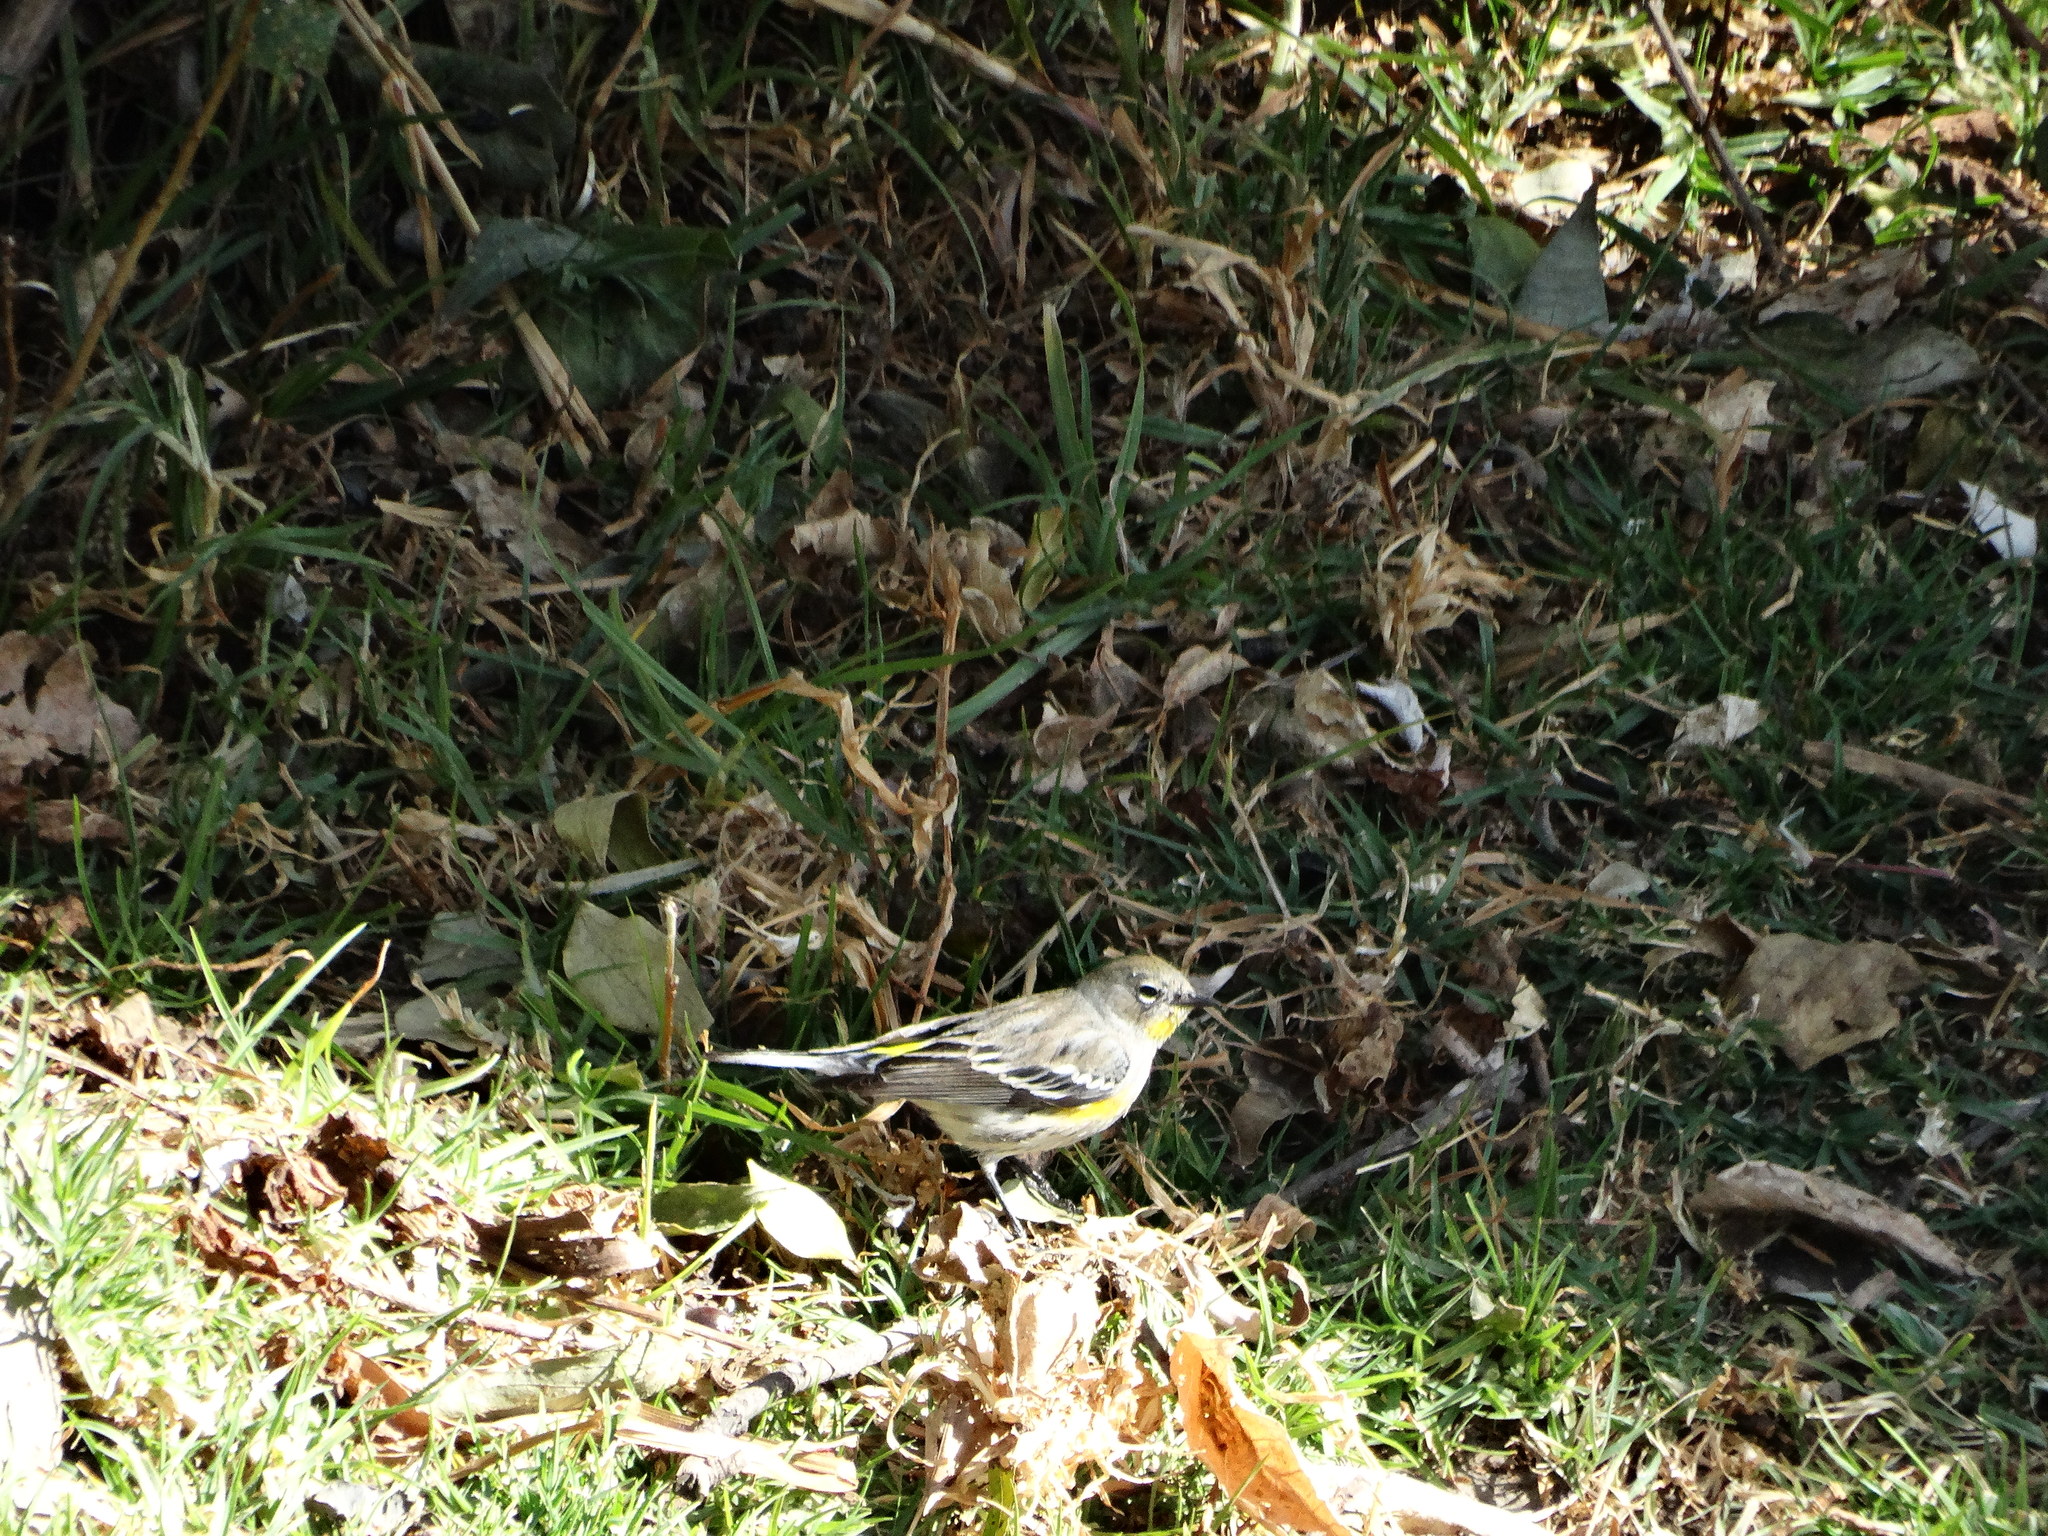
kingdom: Animalia
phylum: Chordata
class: Aves
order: Passeriformes
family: Parulidae
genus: Setophaga
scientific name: Setophaga auduboni
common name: Audubon's warbler
